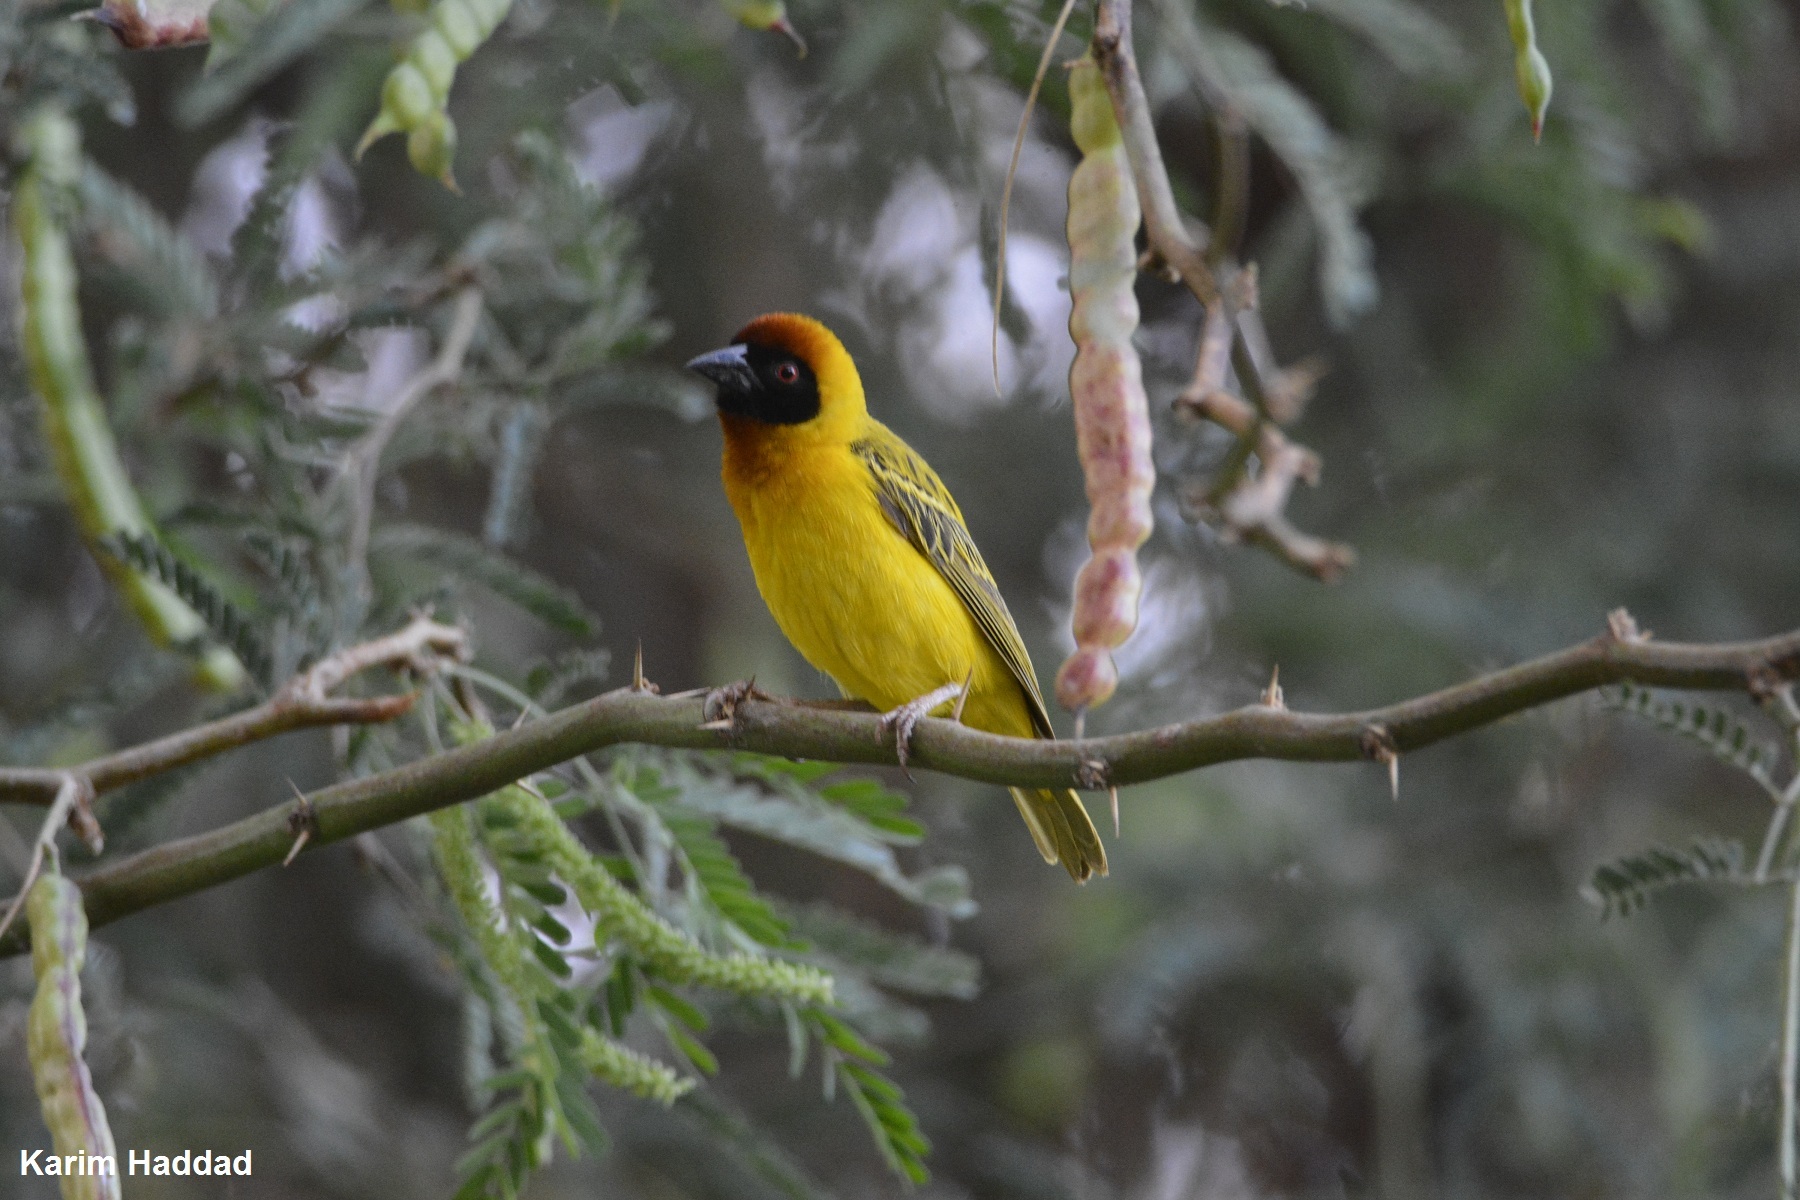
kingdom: Animalia
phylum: Chordata
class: Aves
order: Passeriformes
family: Ploceidae
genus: Ploceus
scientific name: Ploceus vitellinus
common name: Vitelline masked weaver
